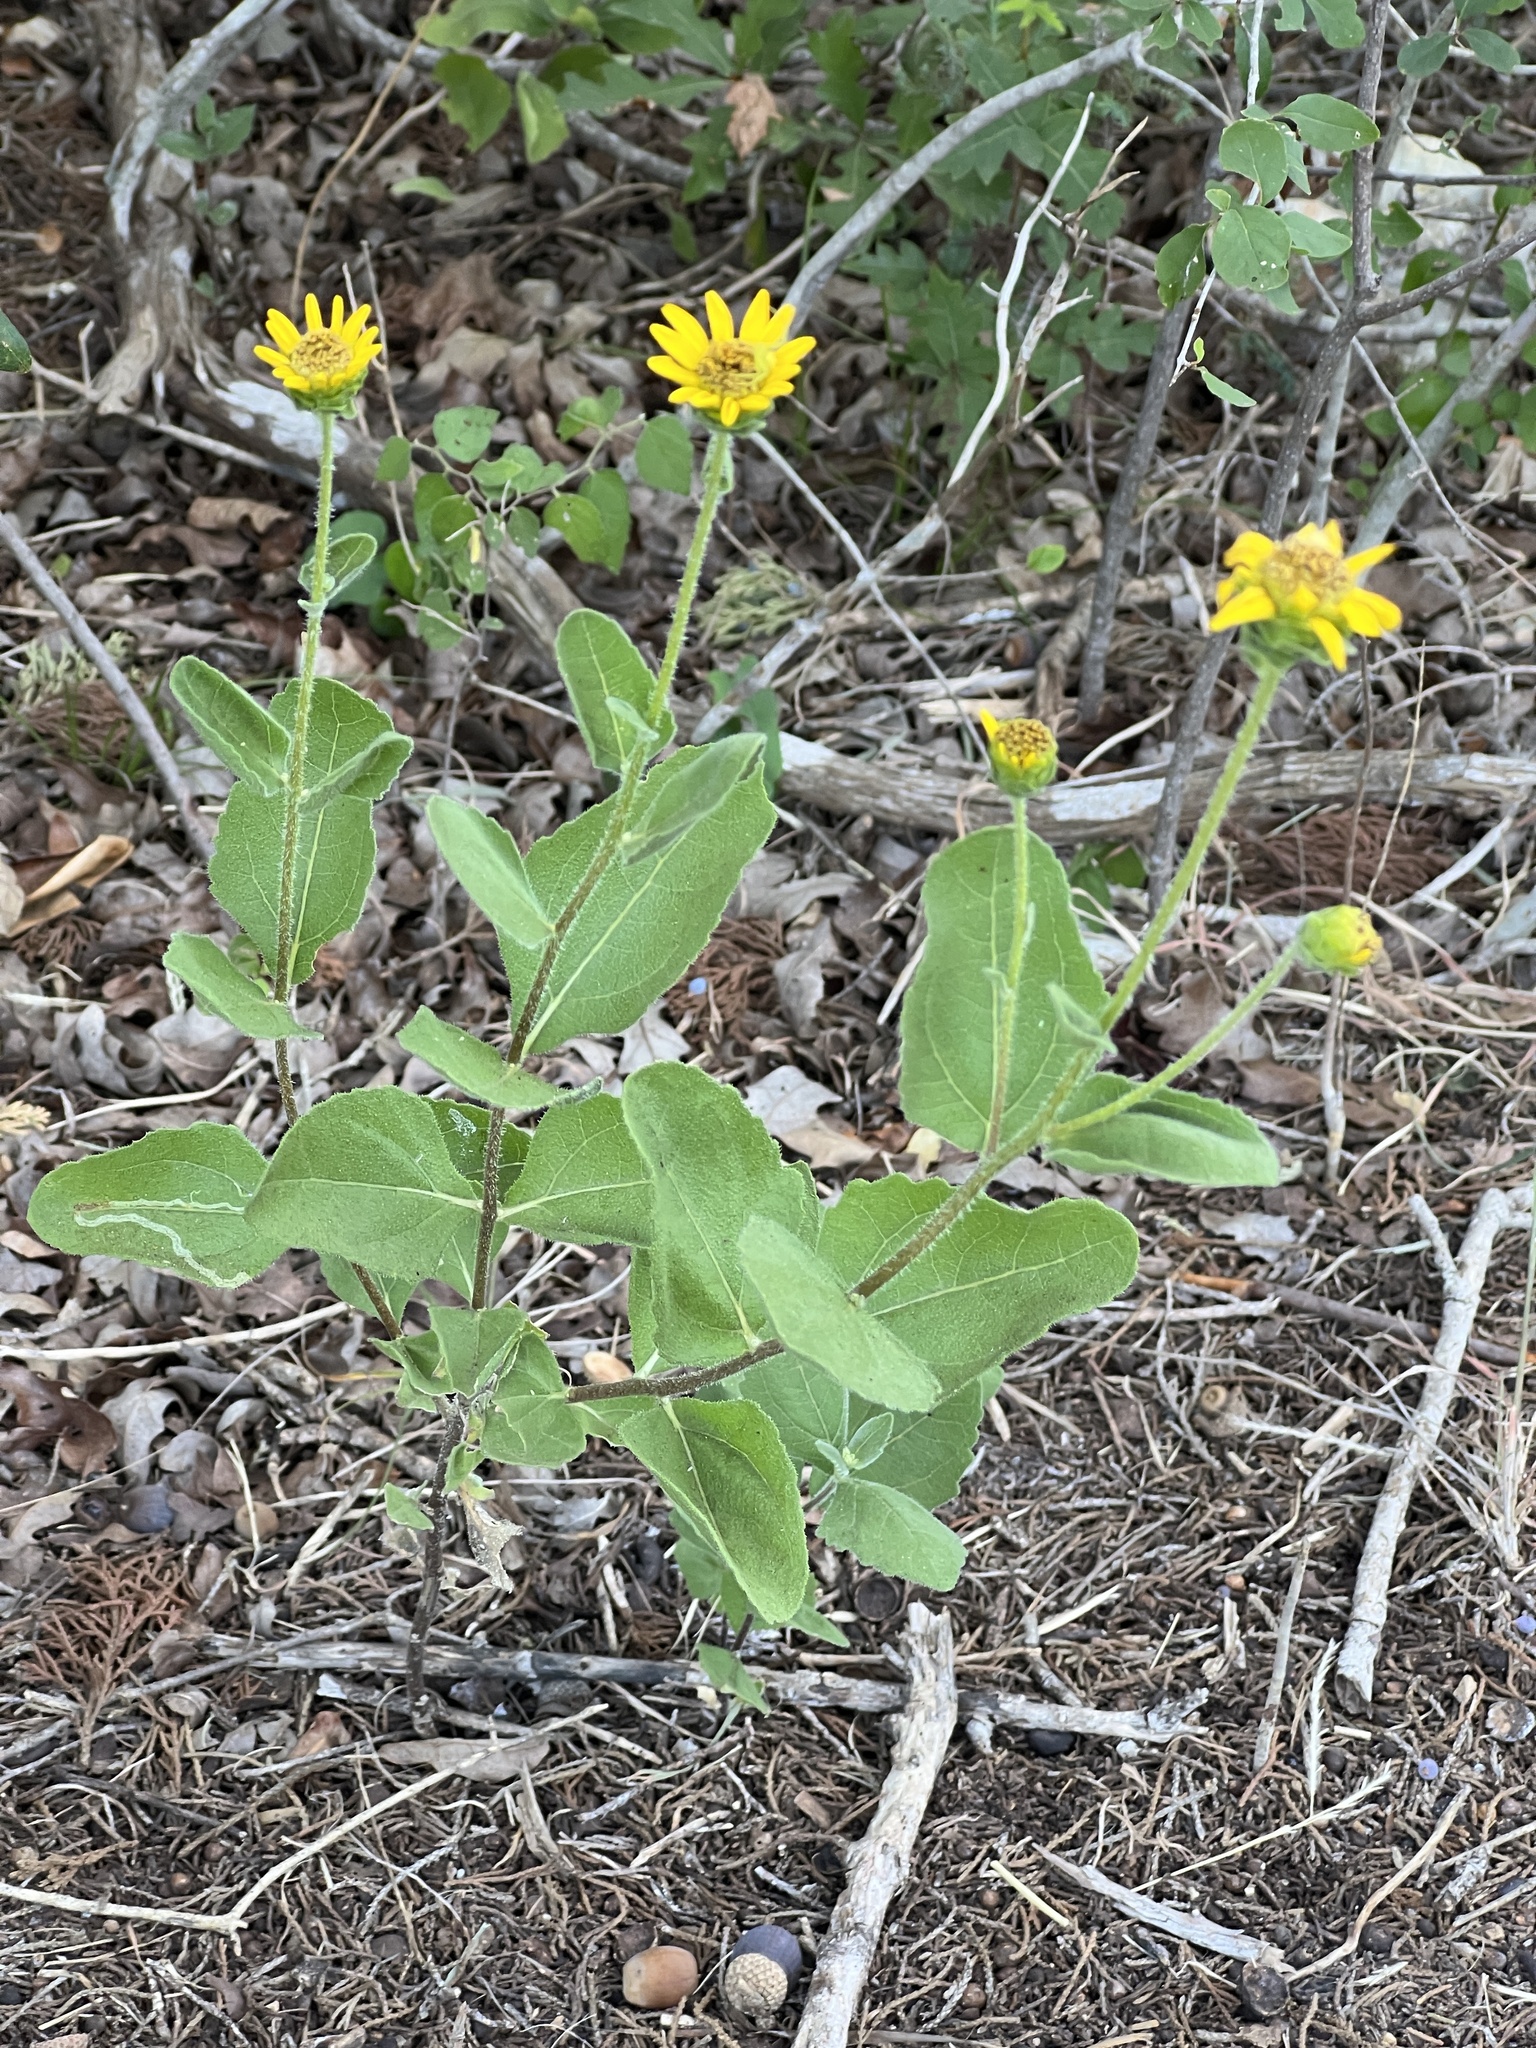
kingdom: Plantae
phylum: Tracheophyta
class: Magnoliopsida
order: Asterales
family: Asteraceae
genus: Verbesina
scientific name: Verbesina lindheimeri
